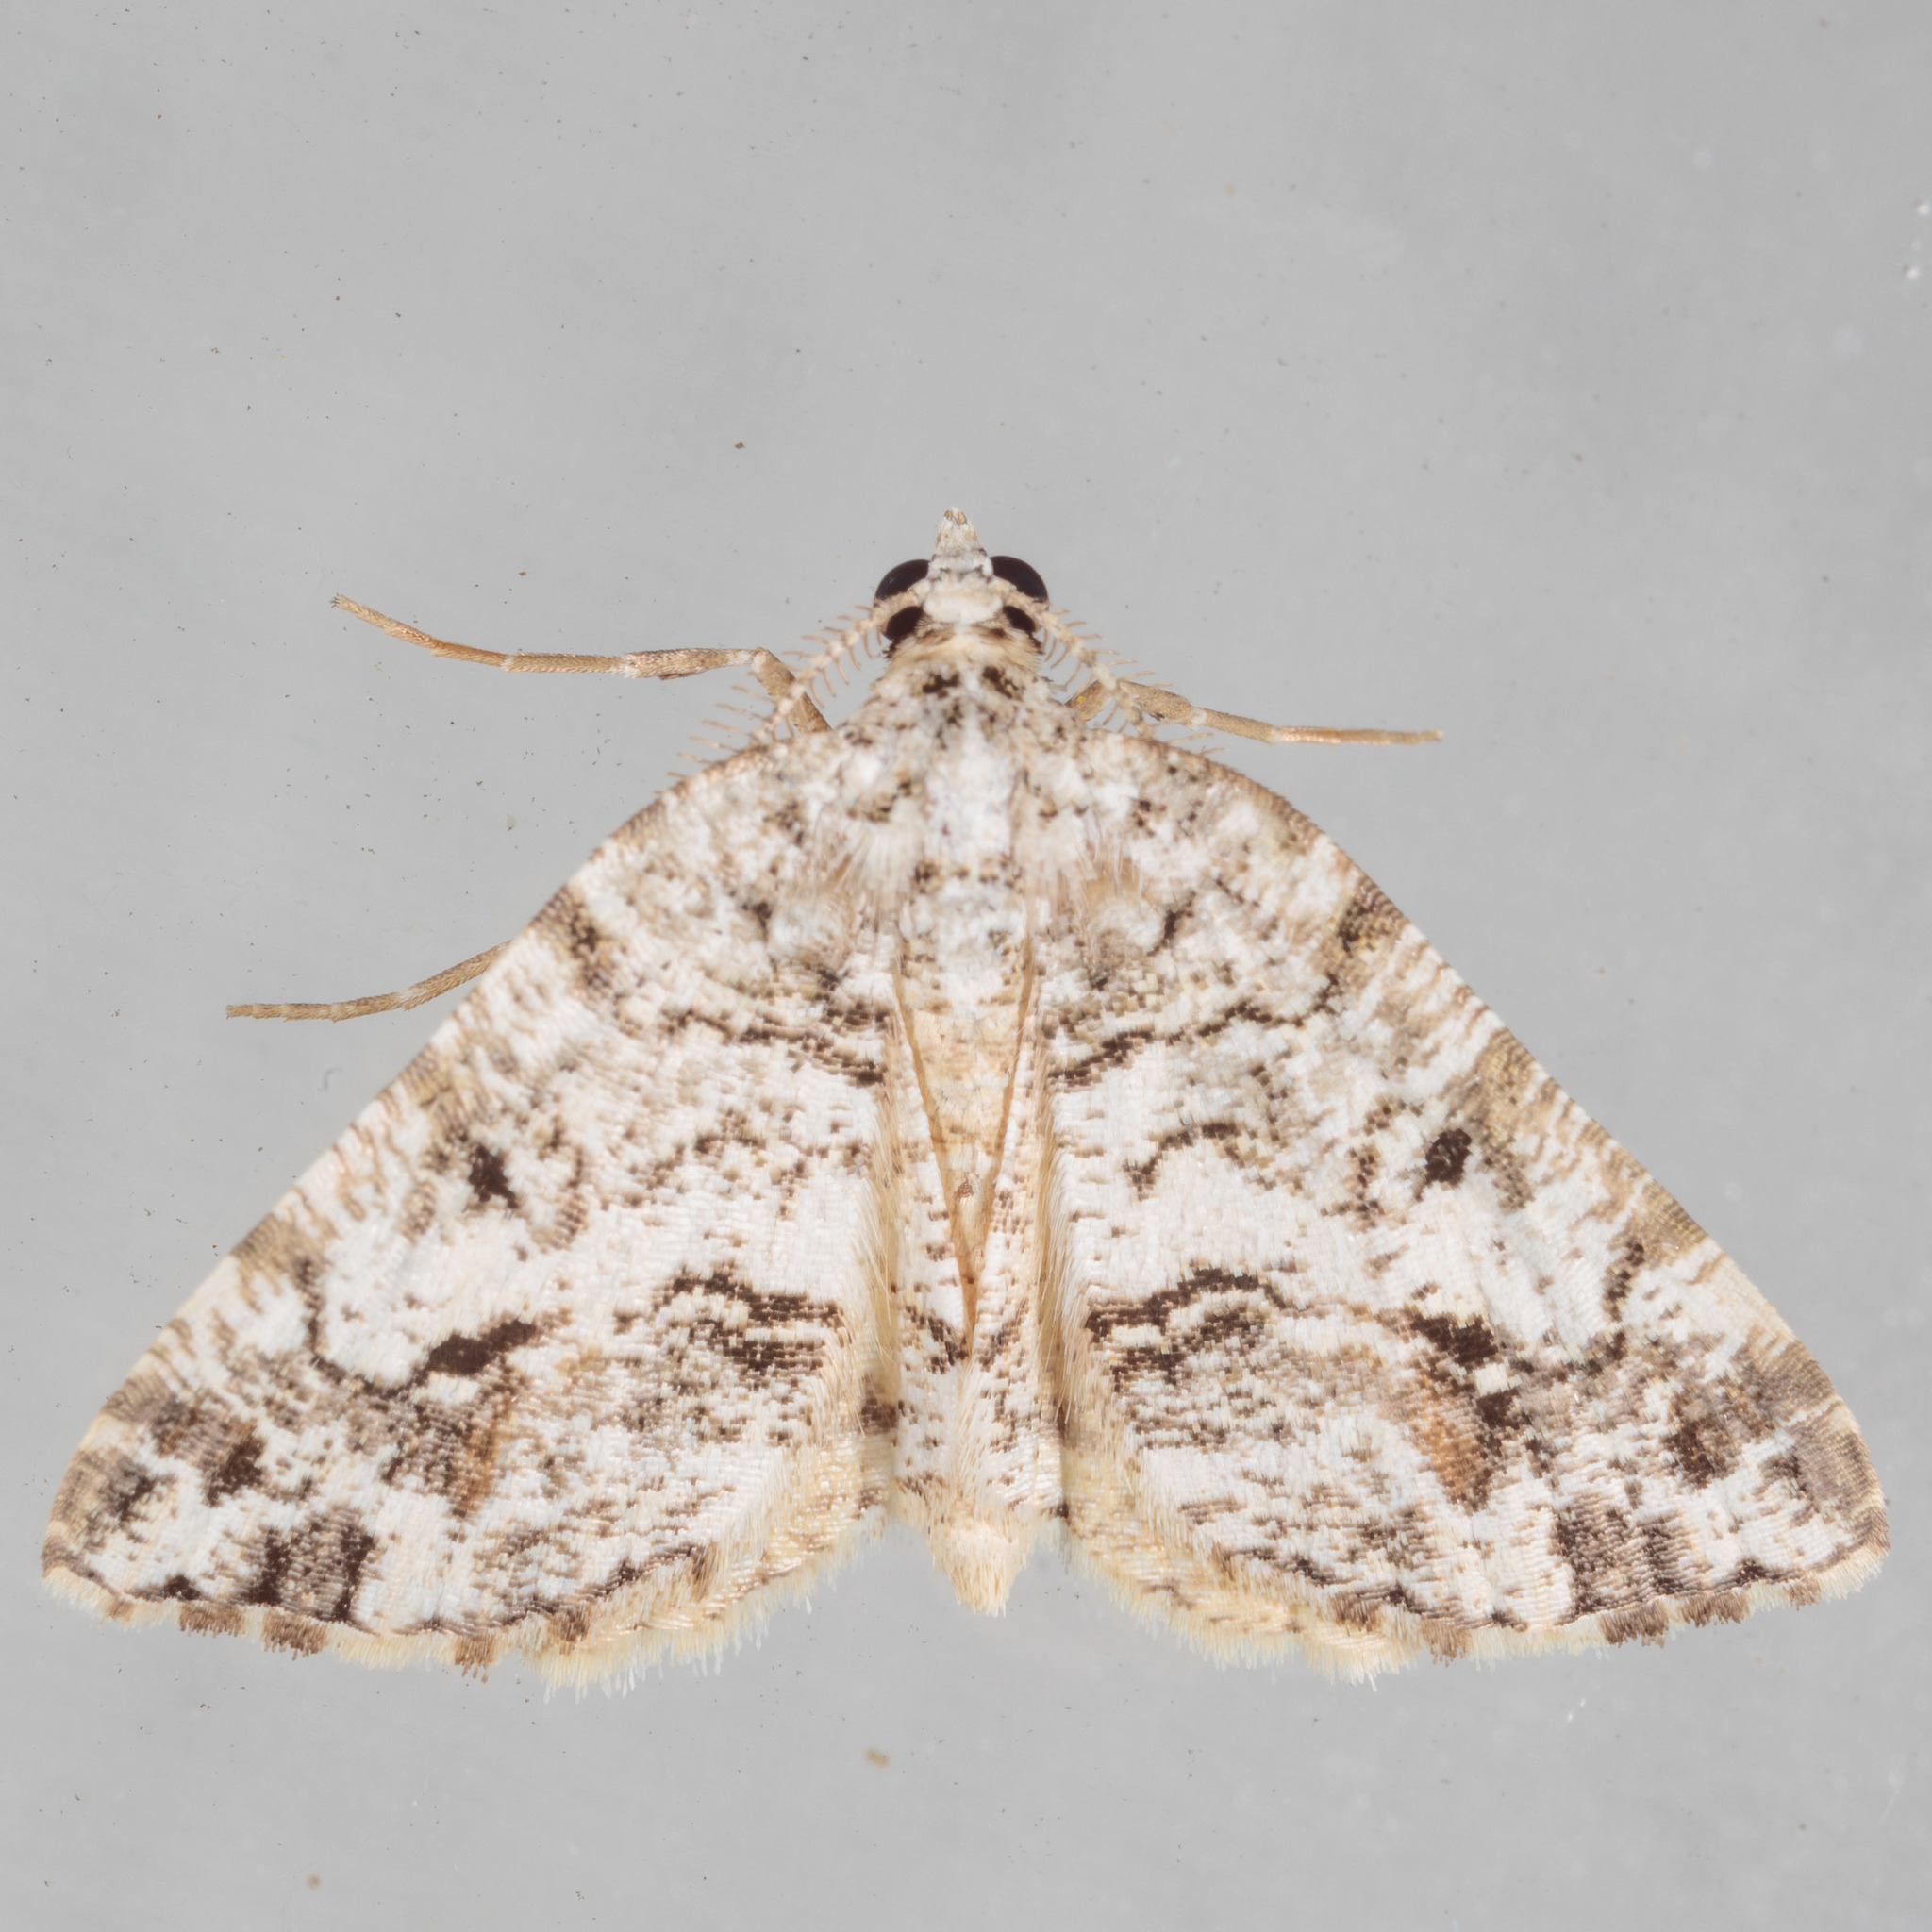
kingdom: Animalia
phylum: Arthropoda
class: Insecta
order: Lepidoptera
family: Geometridae
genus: Macaria
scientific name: Macaria graphidaria
